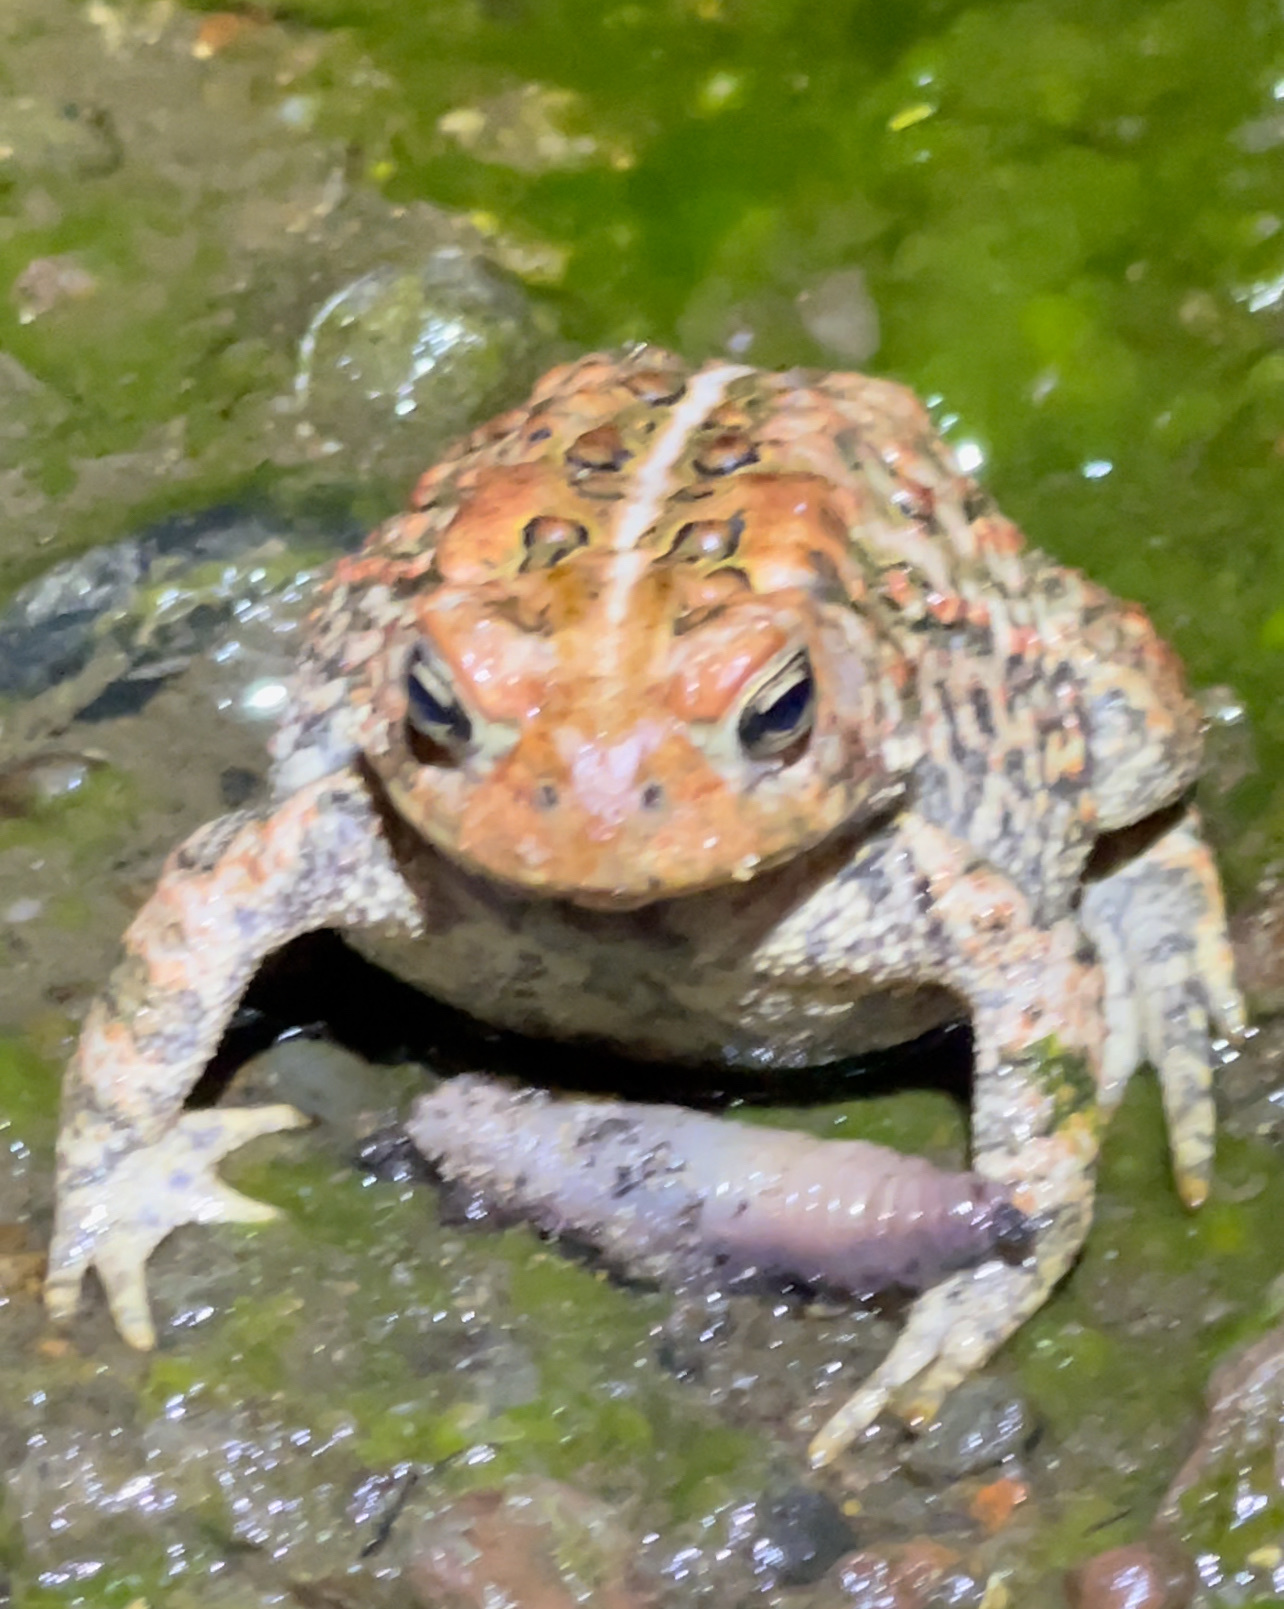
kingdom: Animalia
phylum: Chordata
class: Amphibia
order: Anura
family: Bufonidae
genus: Anaxyrus
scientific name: Anaxyrus americanus
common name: American toad
